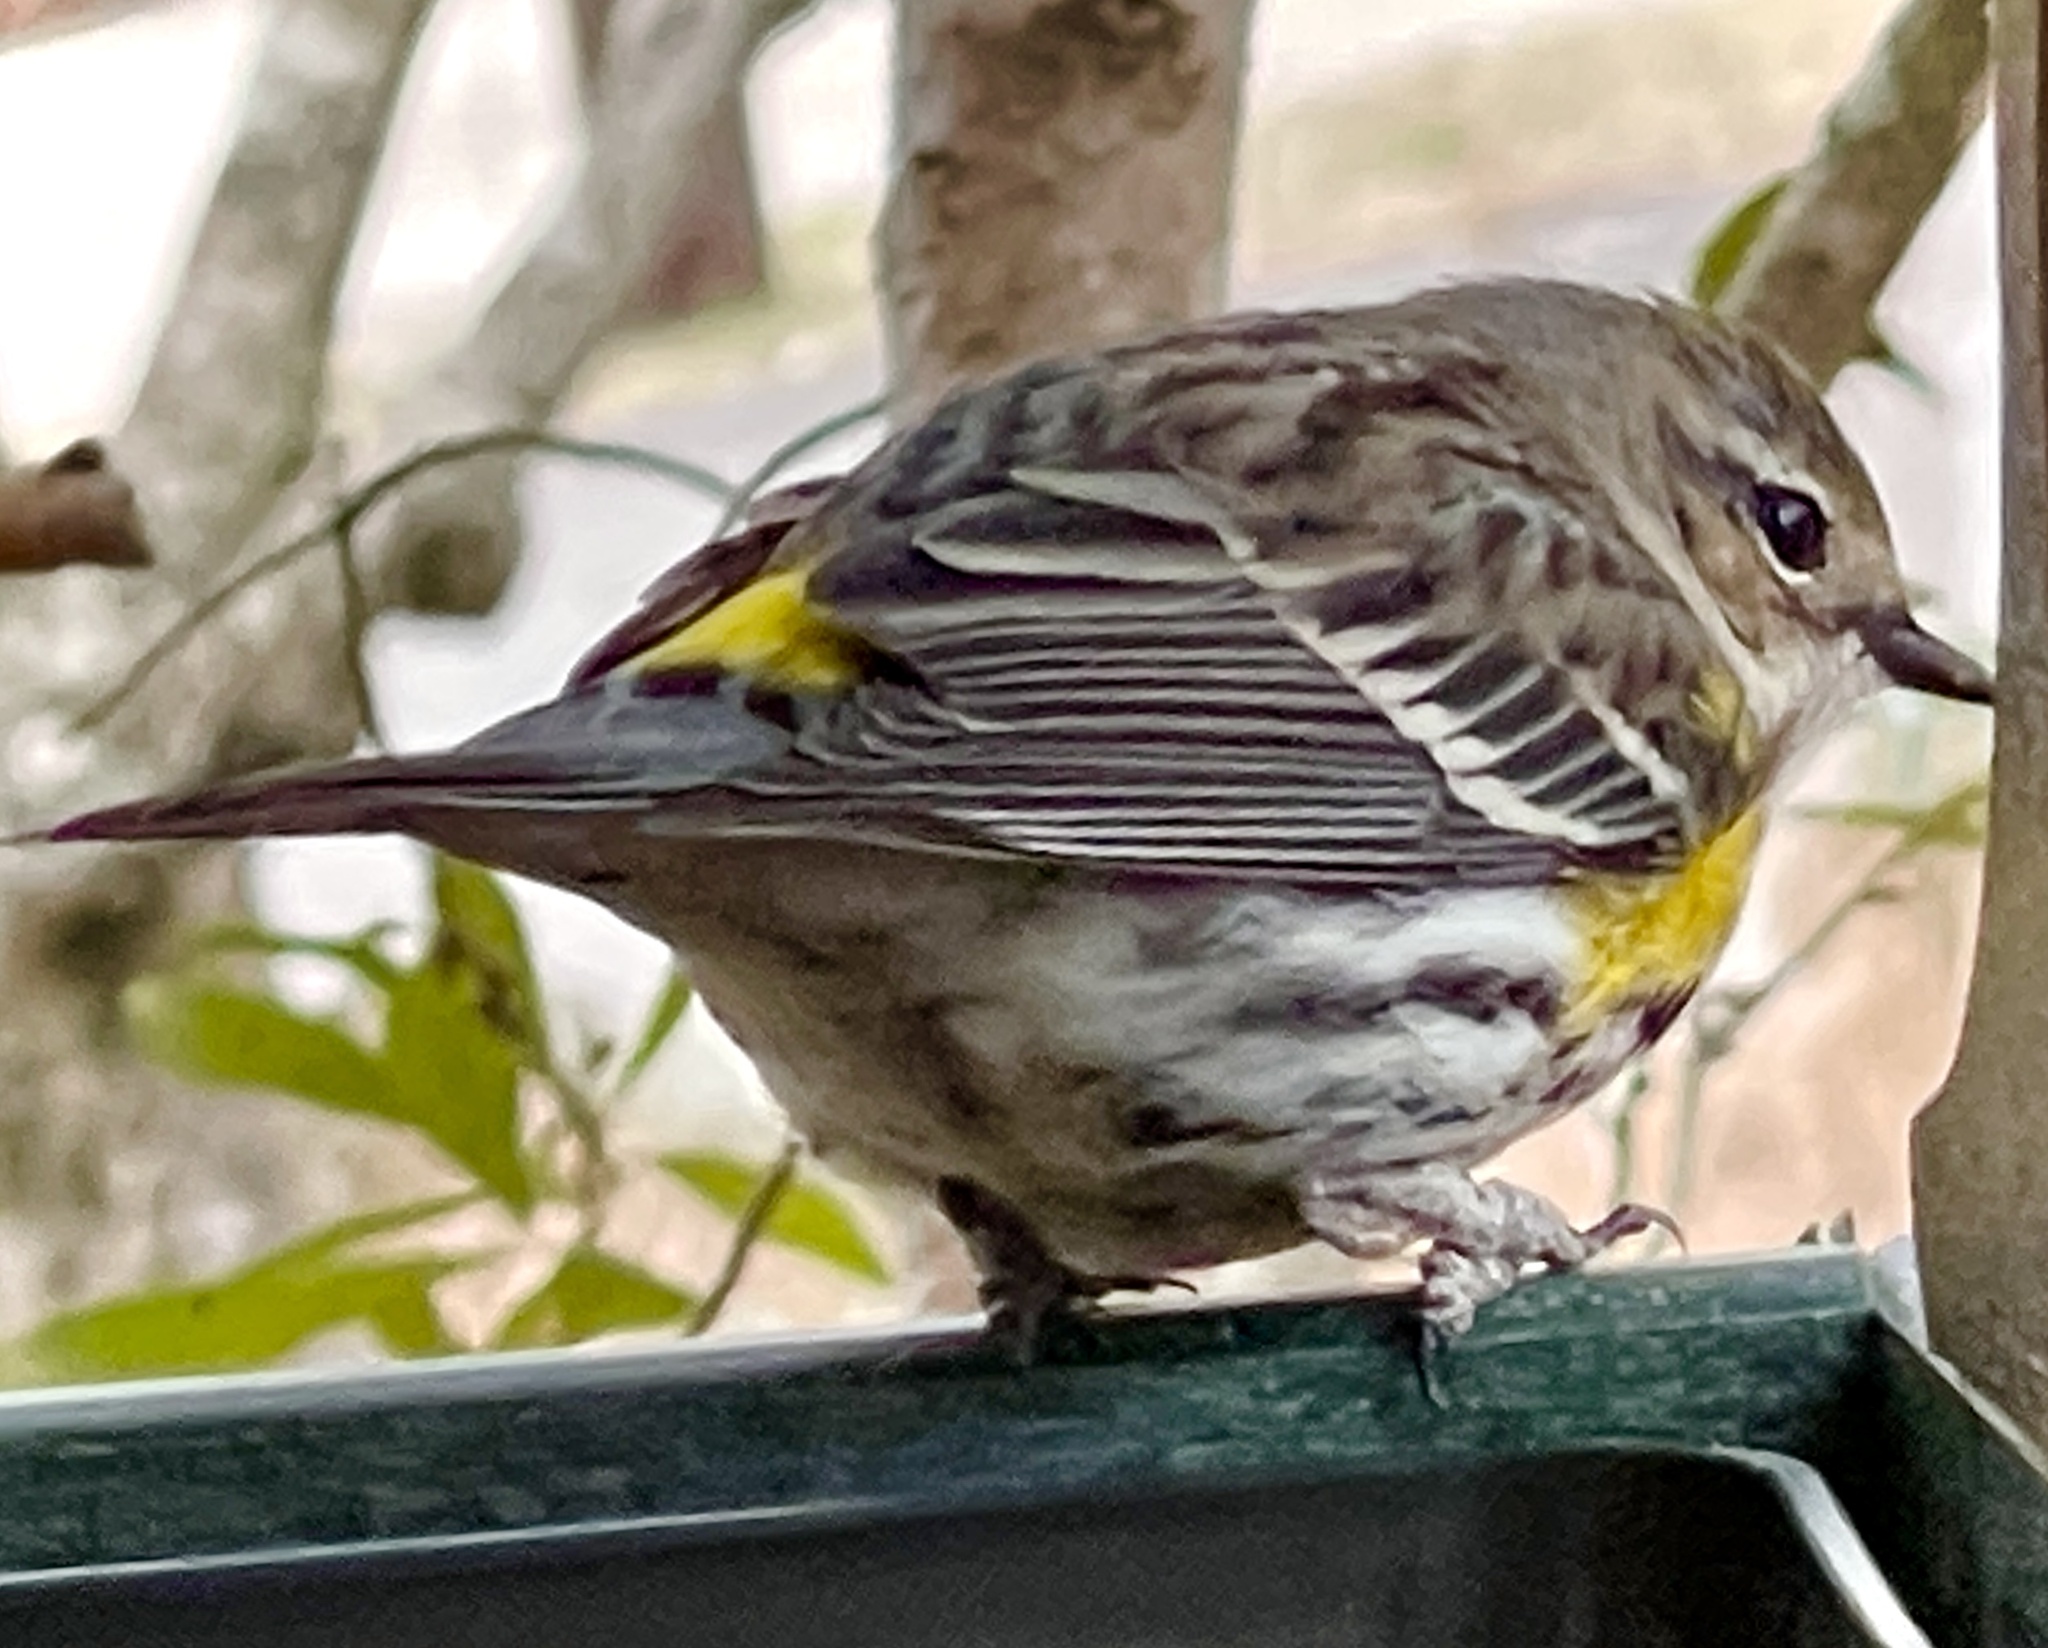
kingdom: Animalia
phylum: Chordata
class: Aves
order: Passeriformes
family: Parulidae
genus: Setophaga
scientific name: Setophaga coronata
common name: Myrtle warbler
